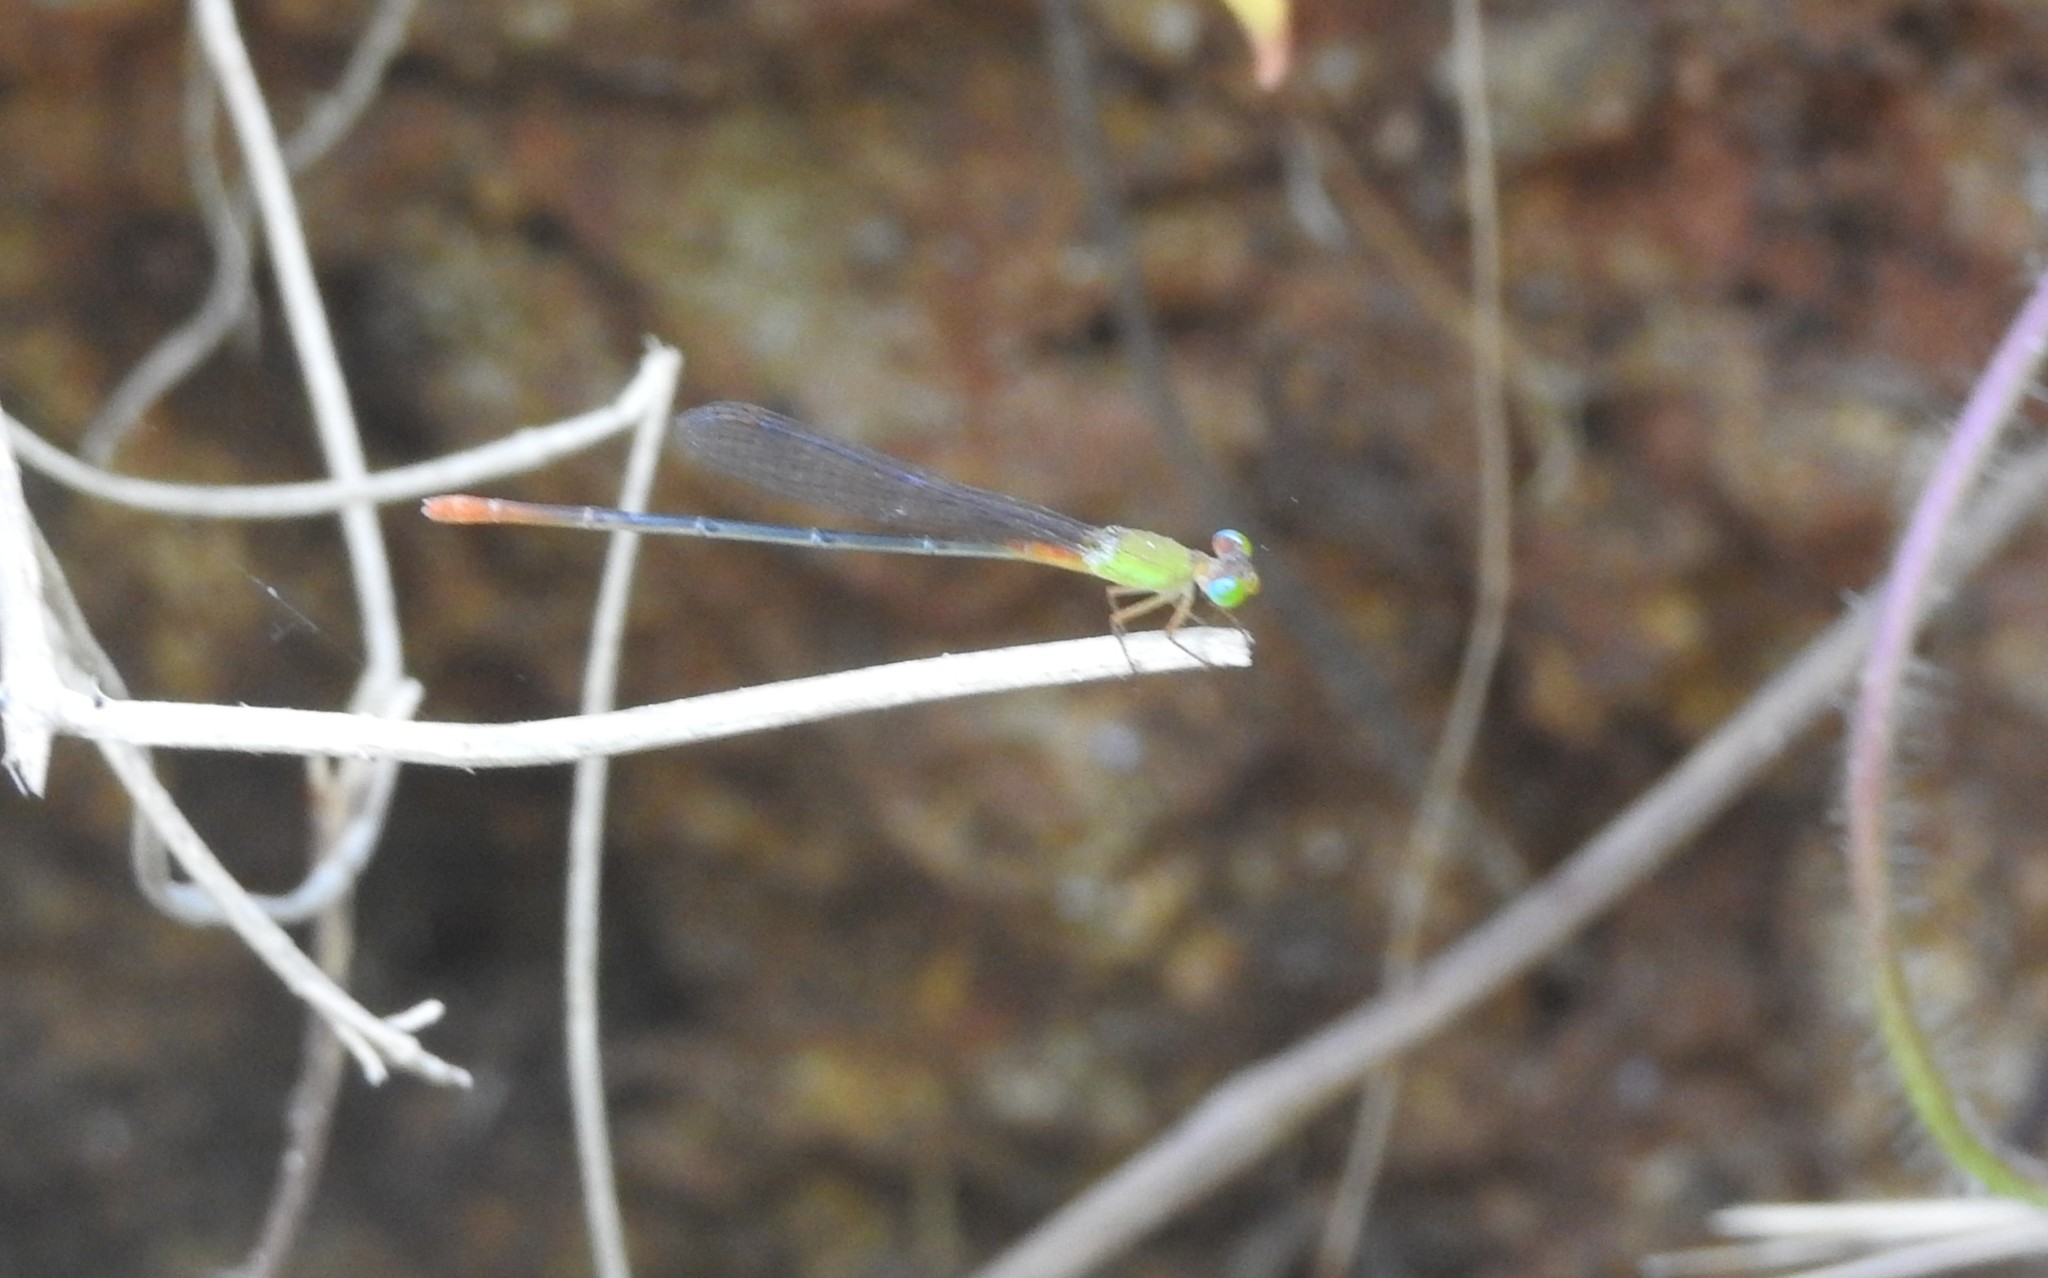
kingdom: Animalia
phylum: Arthropoda
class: Insecta
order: Odonata
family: Coenagrionidae
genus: Ceriagrion
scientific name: Ceriagrion cerinorubellum
